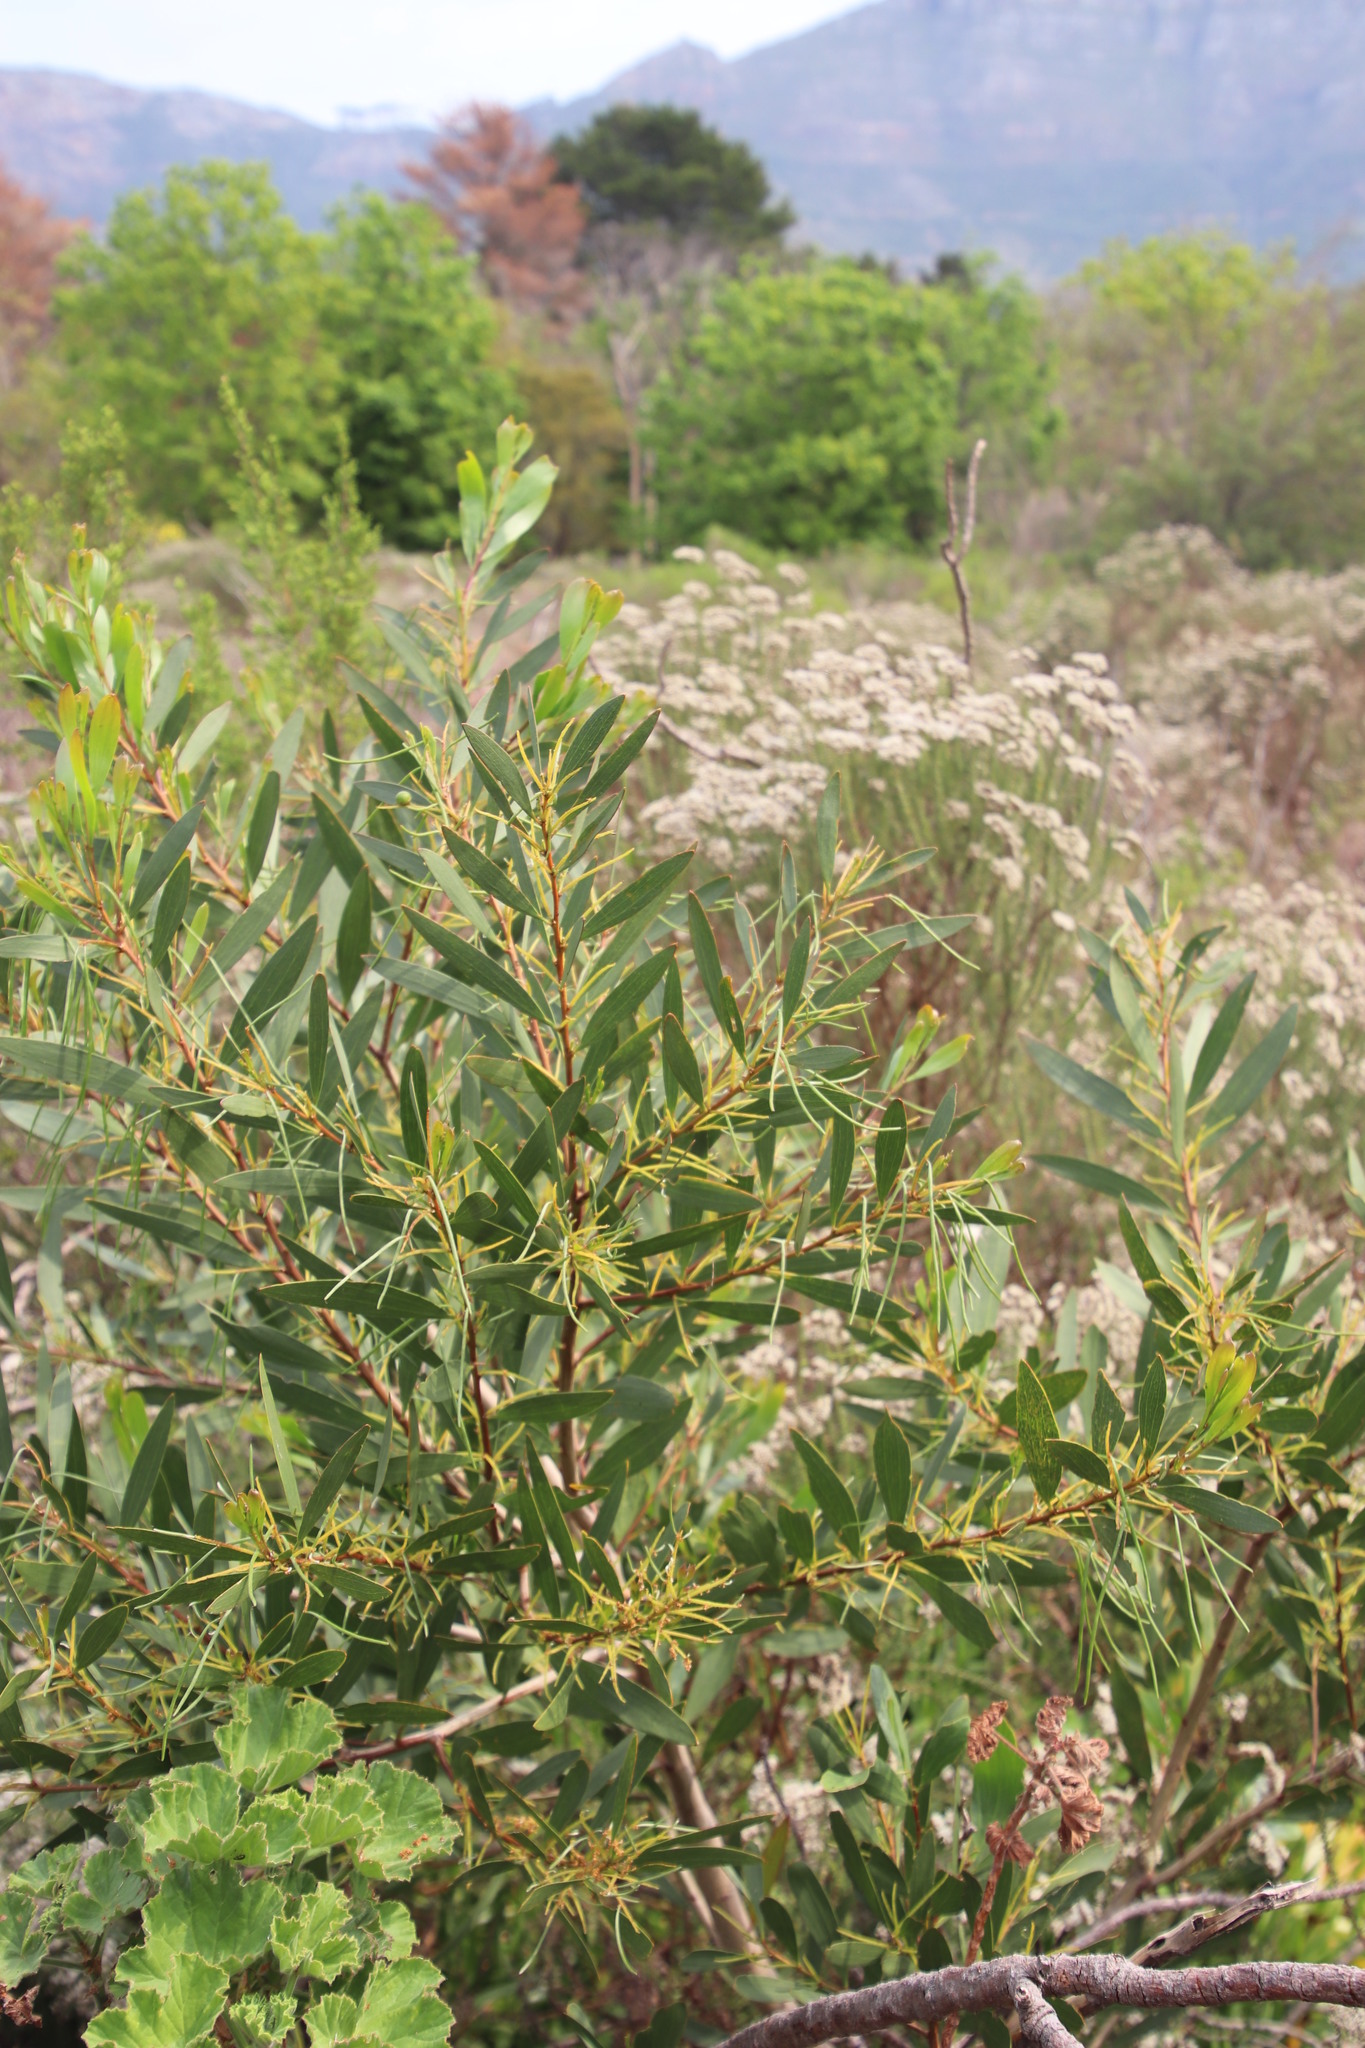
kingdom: Plantae
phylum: Tracheophyta
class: Magnoliopsida
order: Fabales
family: Fabaceae
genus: Acacia
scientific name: Acacia longifolia
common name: Sydney golden wattle
